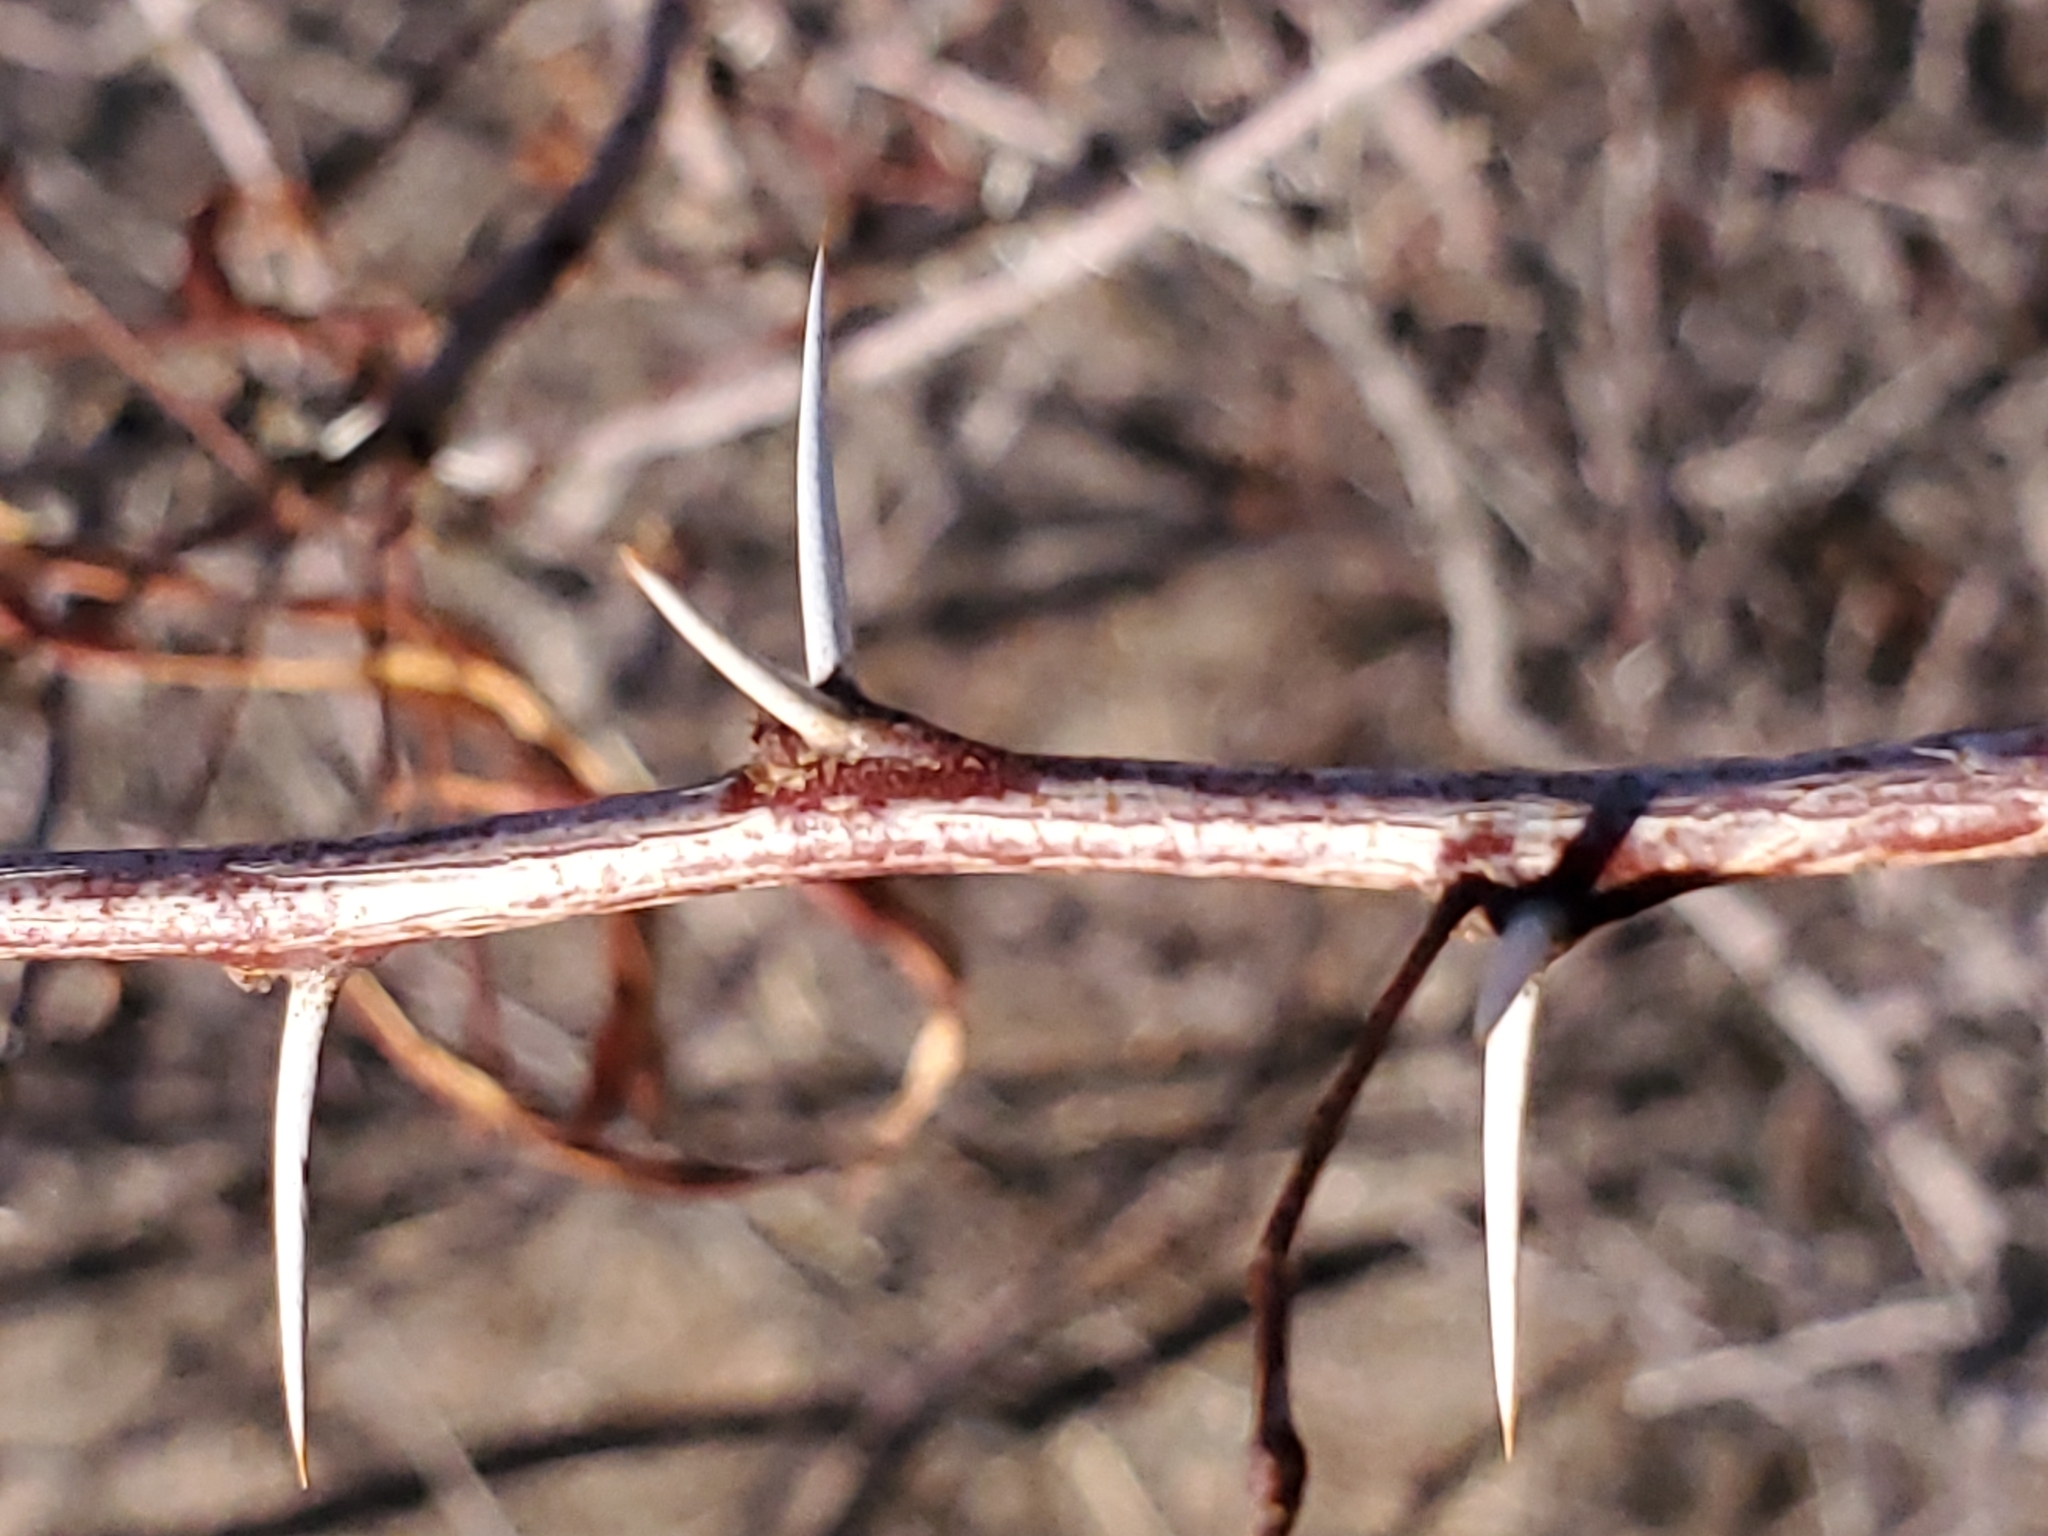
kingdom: Plantae
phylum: Tracheophyta
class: Magnoliopsida
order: Fabales
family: Fabaceae
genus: Vachellia
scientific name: Vachellia constricta
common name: Mescat acacia
